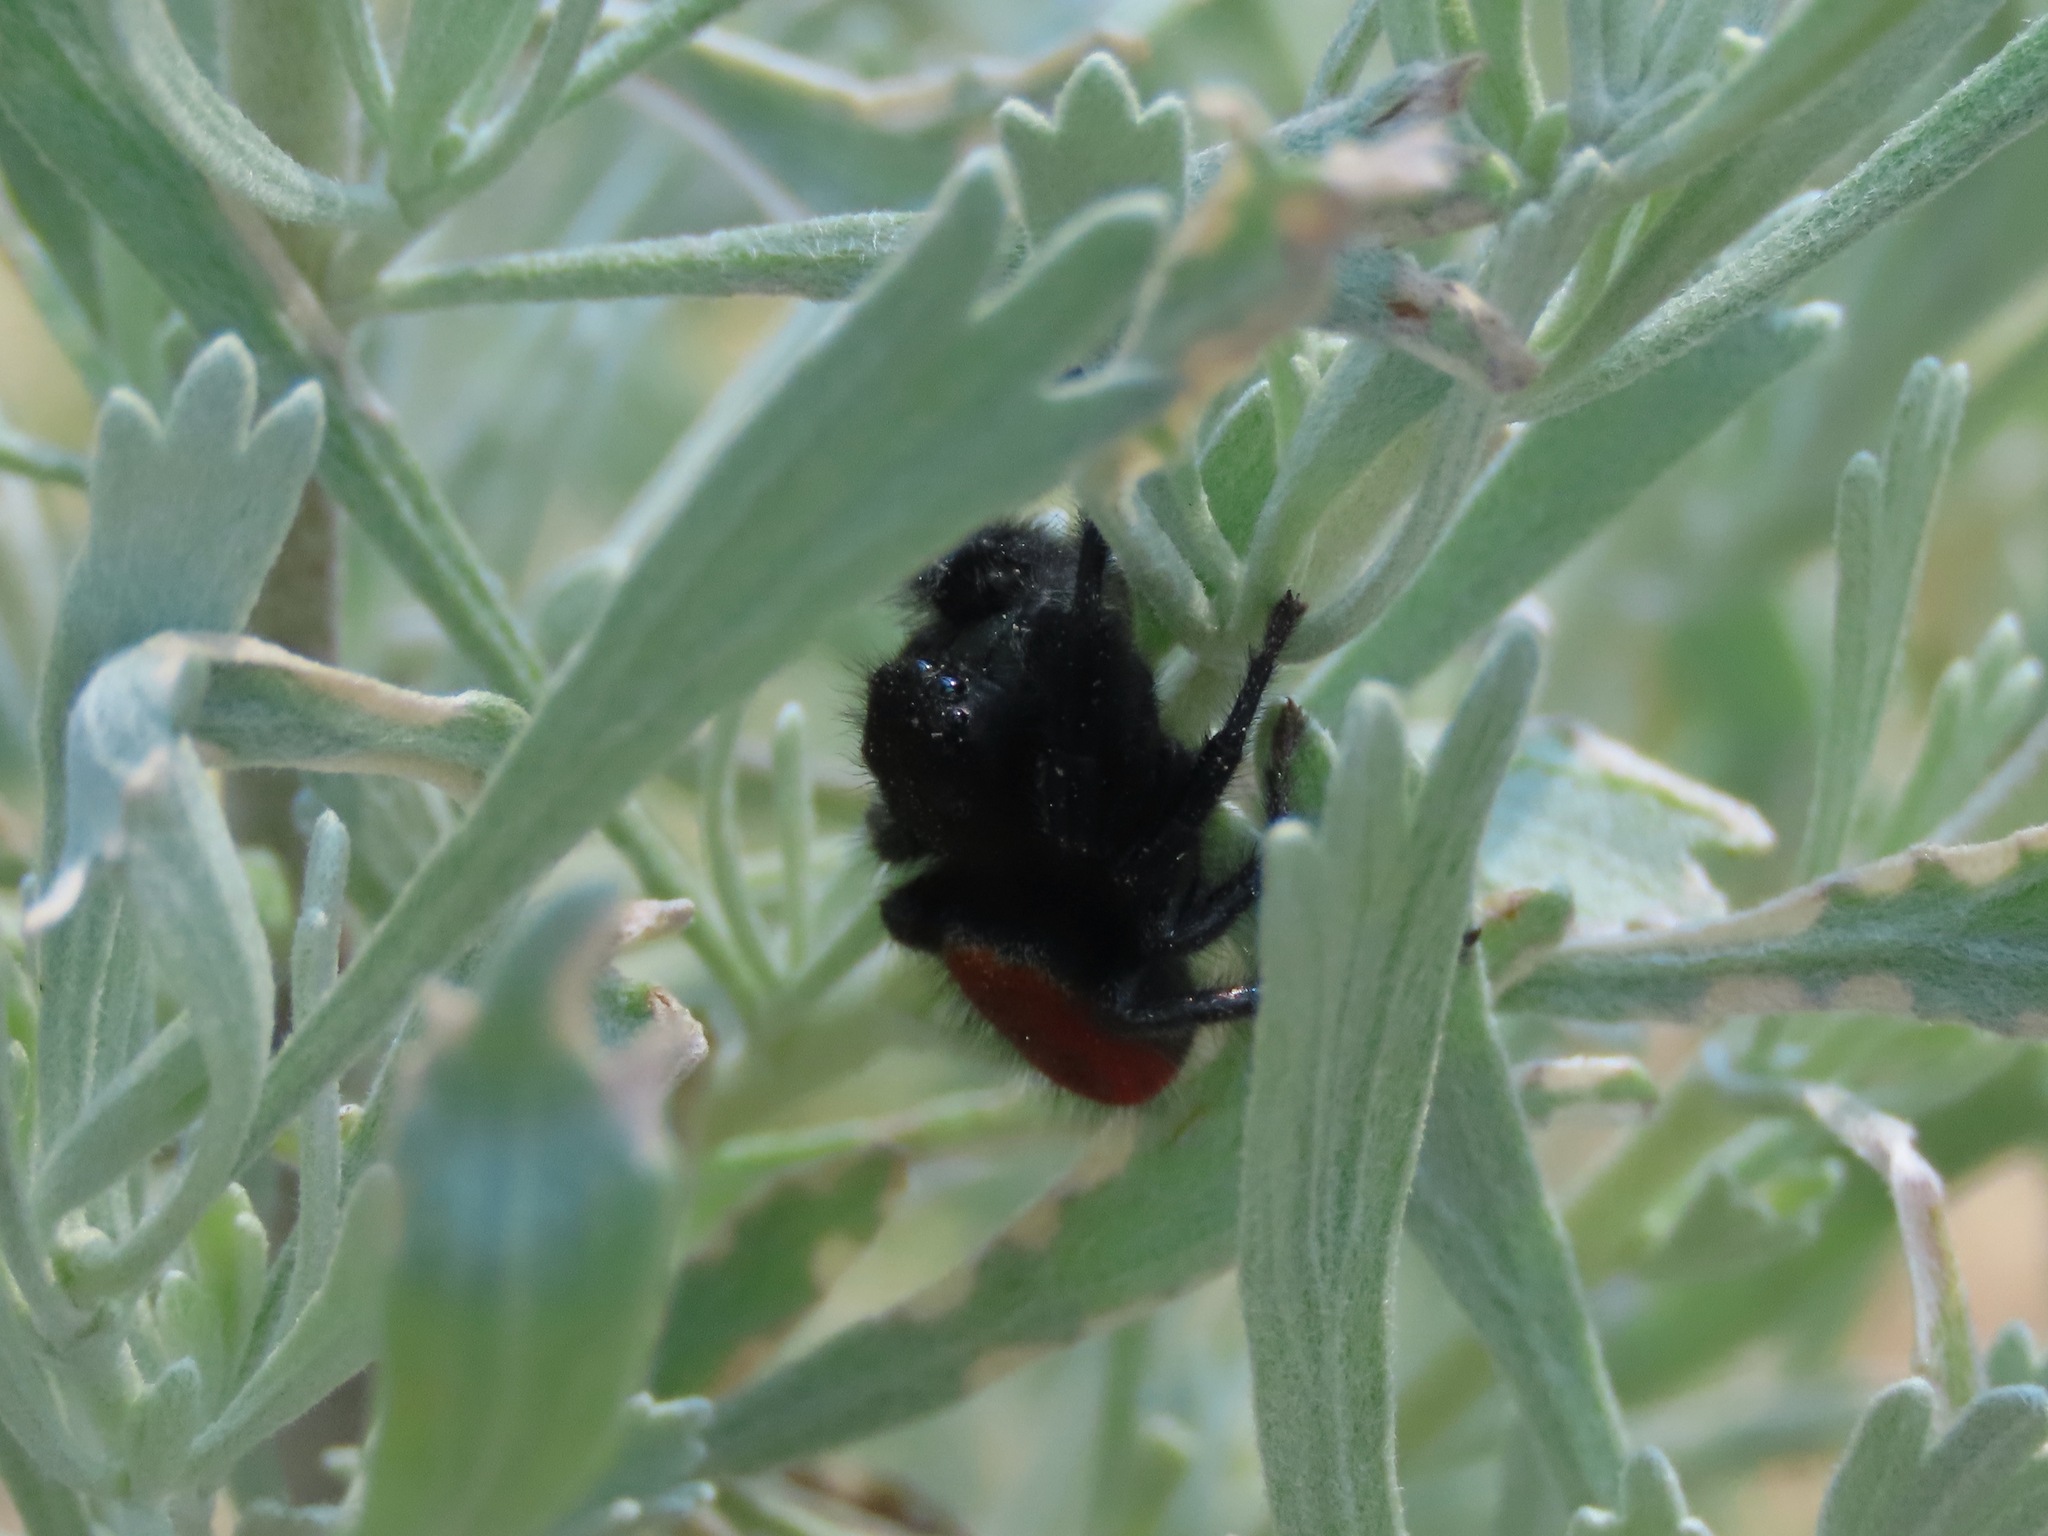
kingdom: Animalia
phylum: Arthropoda
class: Arachnida
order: Araneae
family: Salticidae
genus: Phidippus
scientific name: Phidippus johnsoni
